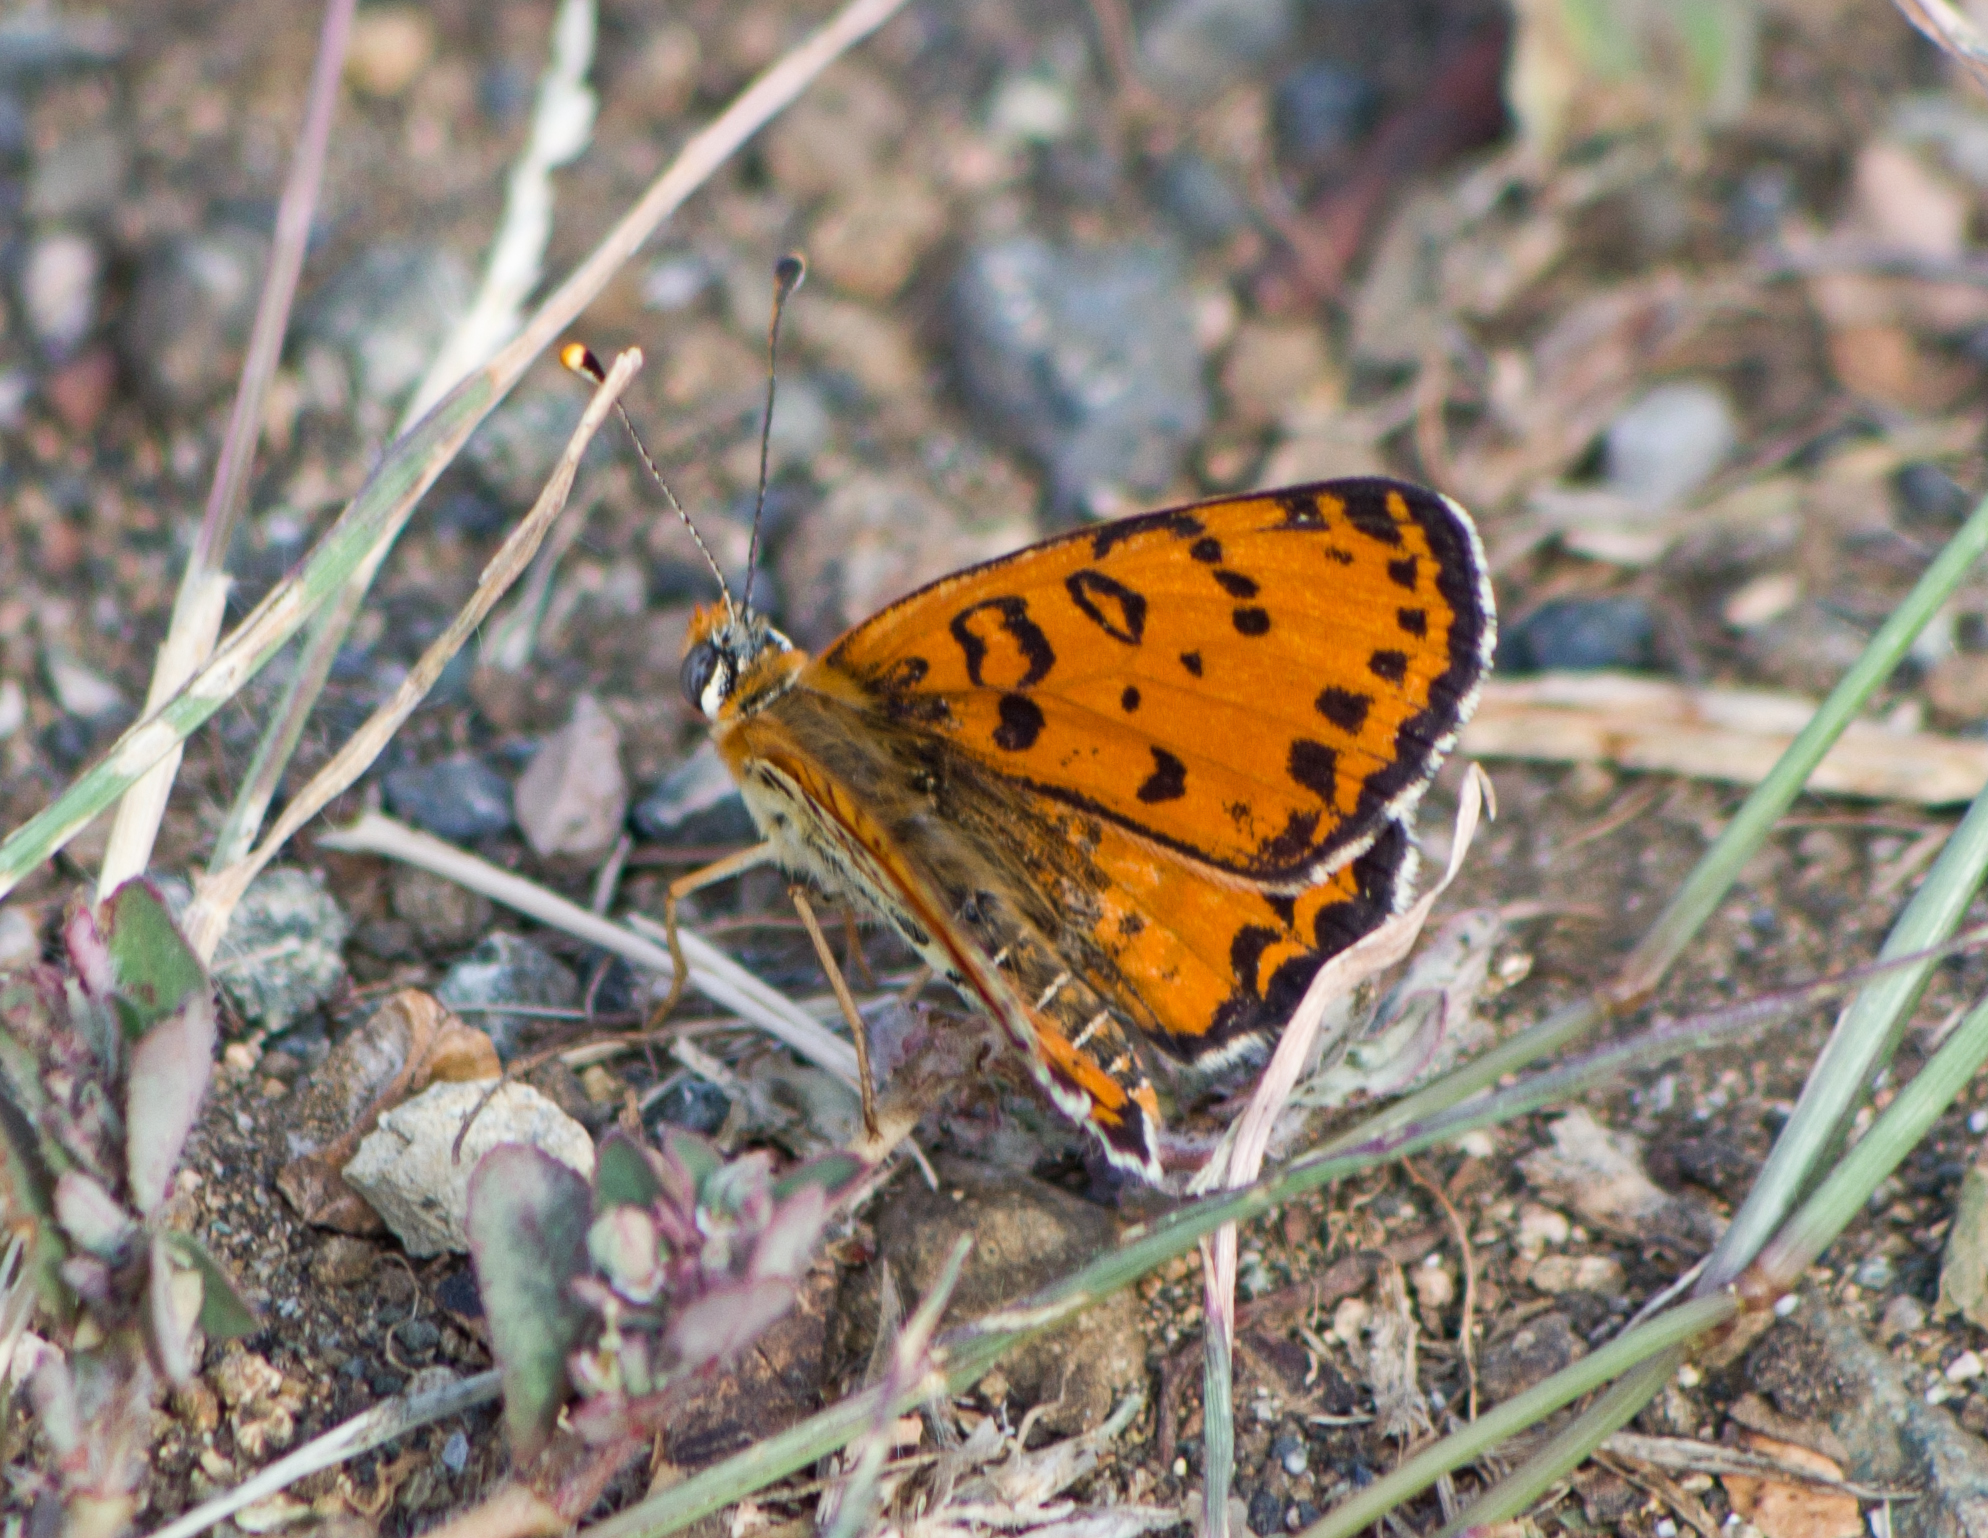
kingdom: Animalia
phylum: Arthropoda
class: Insecta
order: Lepidoptera
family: Nymphalidae
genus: Melitaea
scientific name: Melitaea didyma
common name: Spotted fritillary
